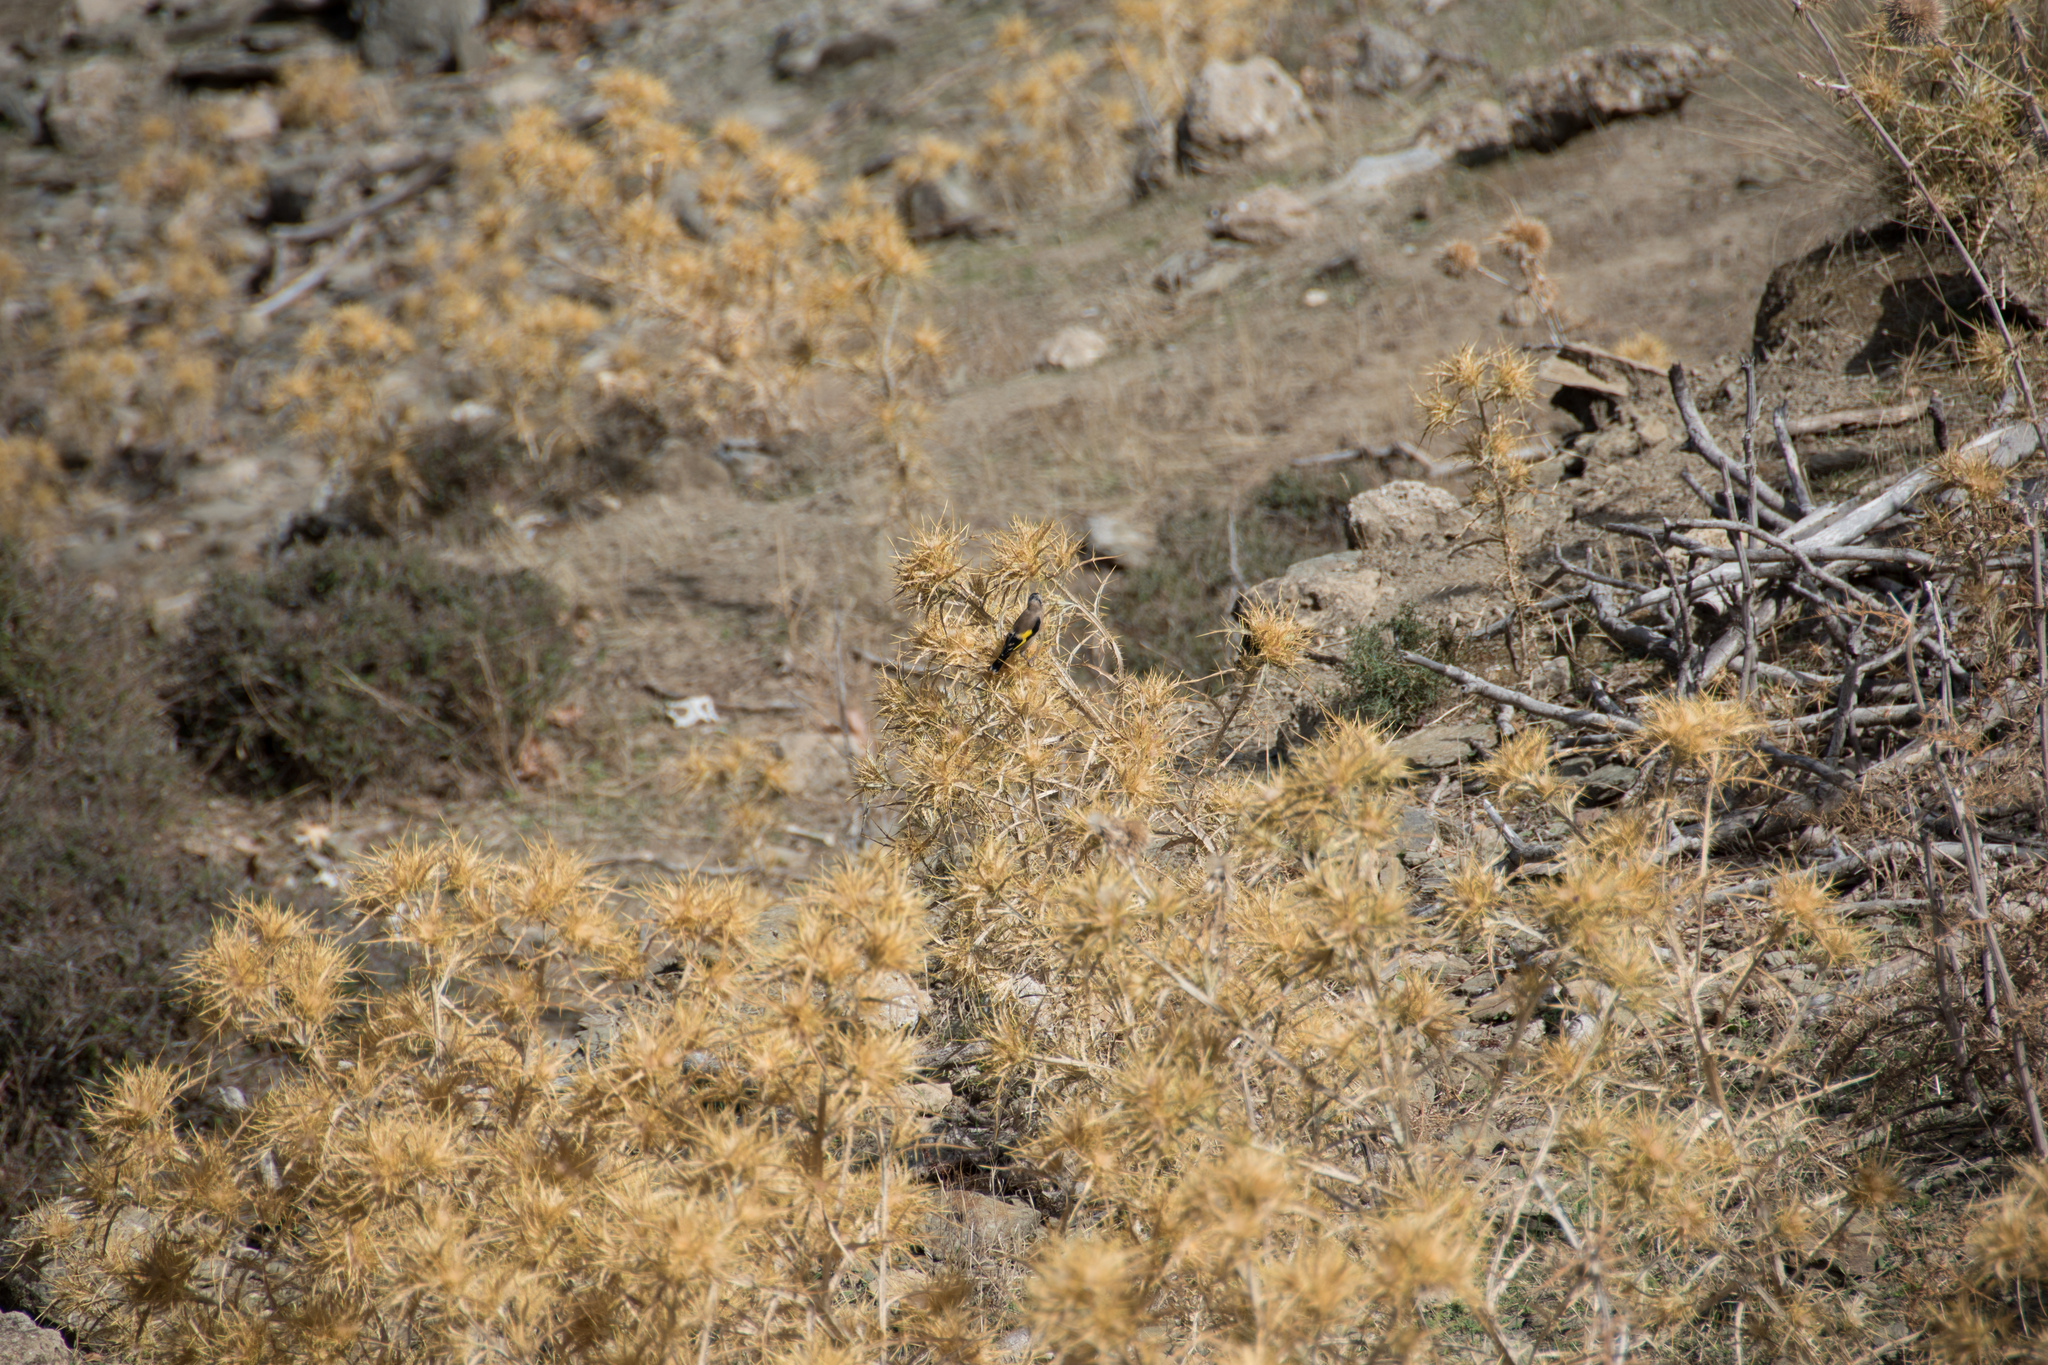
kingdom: Animalia
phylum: Chordata
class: Aves
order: Passeriformes
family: Fringillidae
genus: Carduelis
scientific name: Carduelis carduelis
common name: European goldfinch
